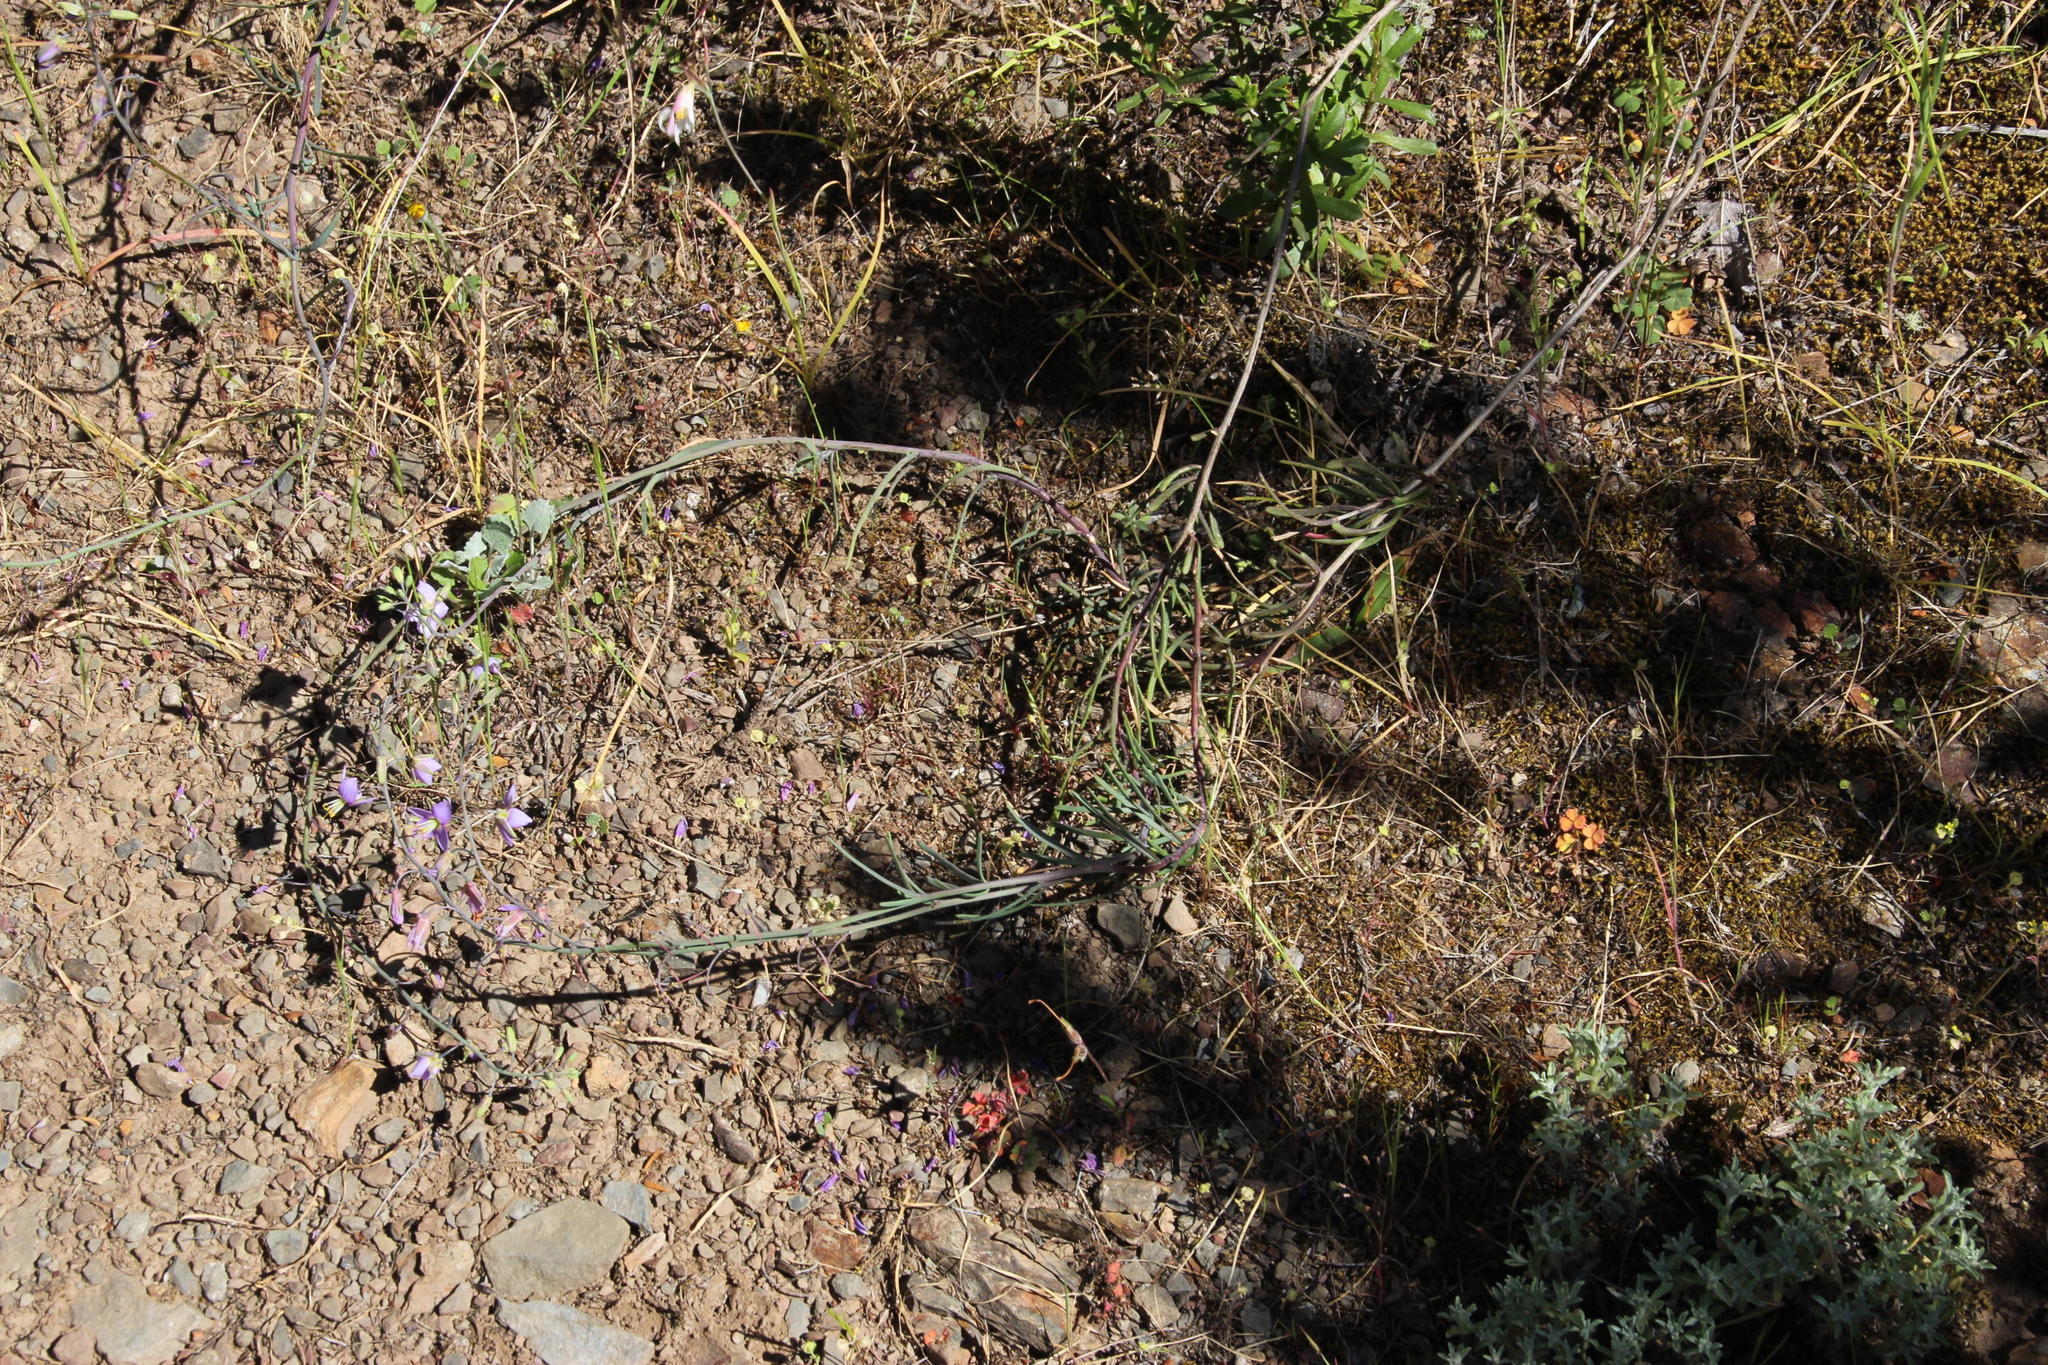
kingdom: Plantae
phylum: Tracheophyta
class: Magnoliopsida
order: Brassicales
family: Brassicaceae
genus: Heliophila
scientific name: Heliophila cornuta
